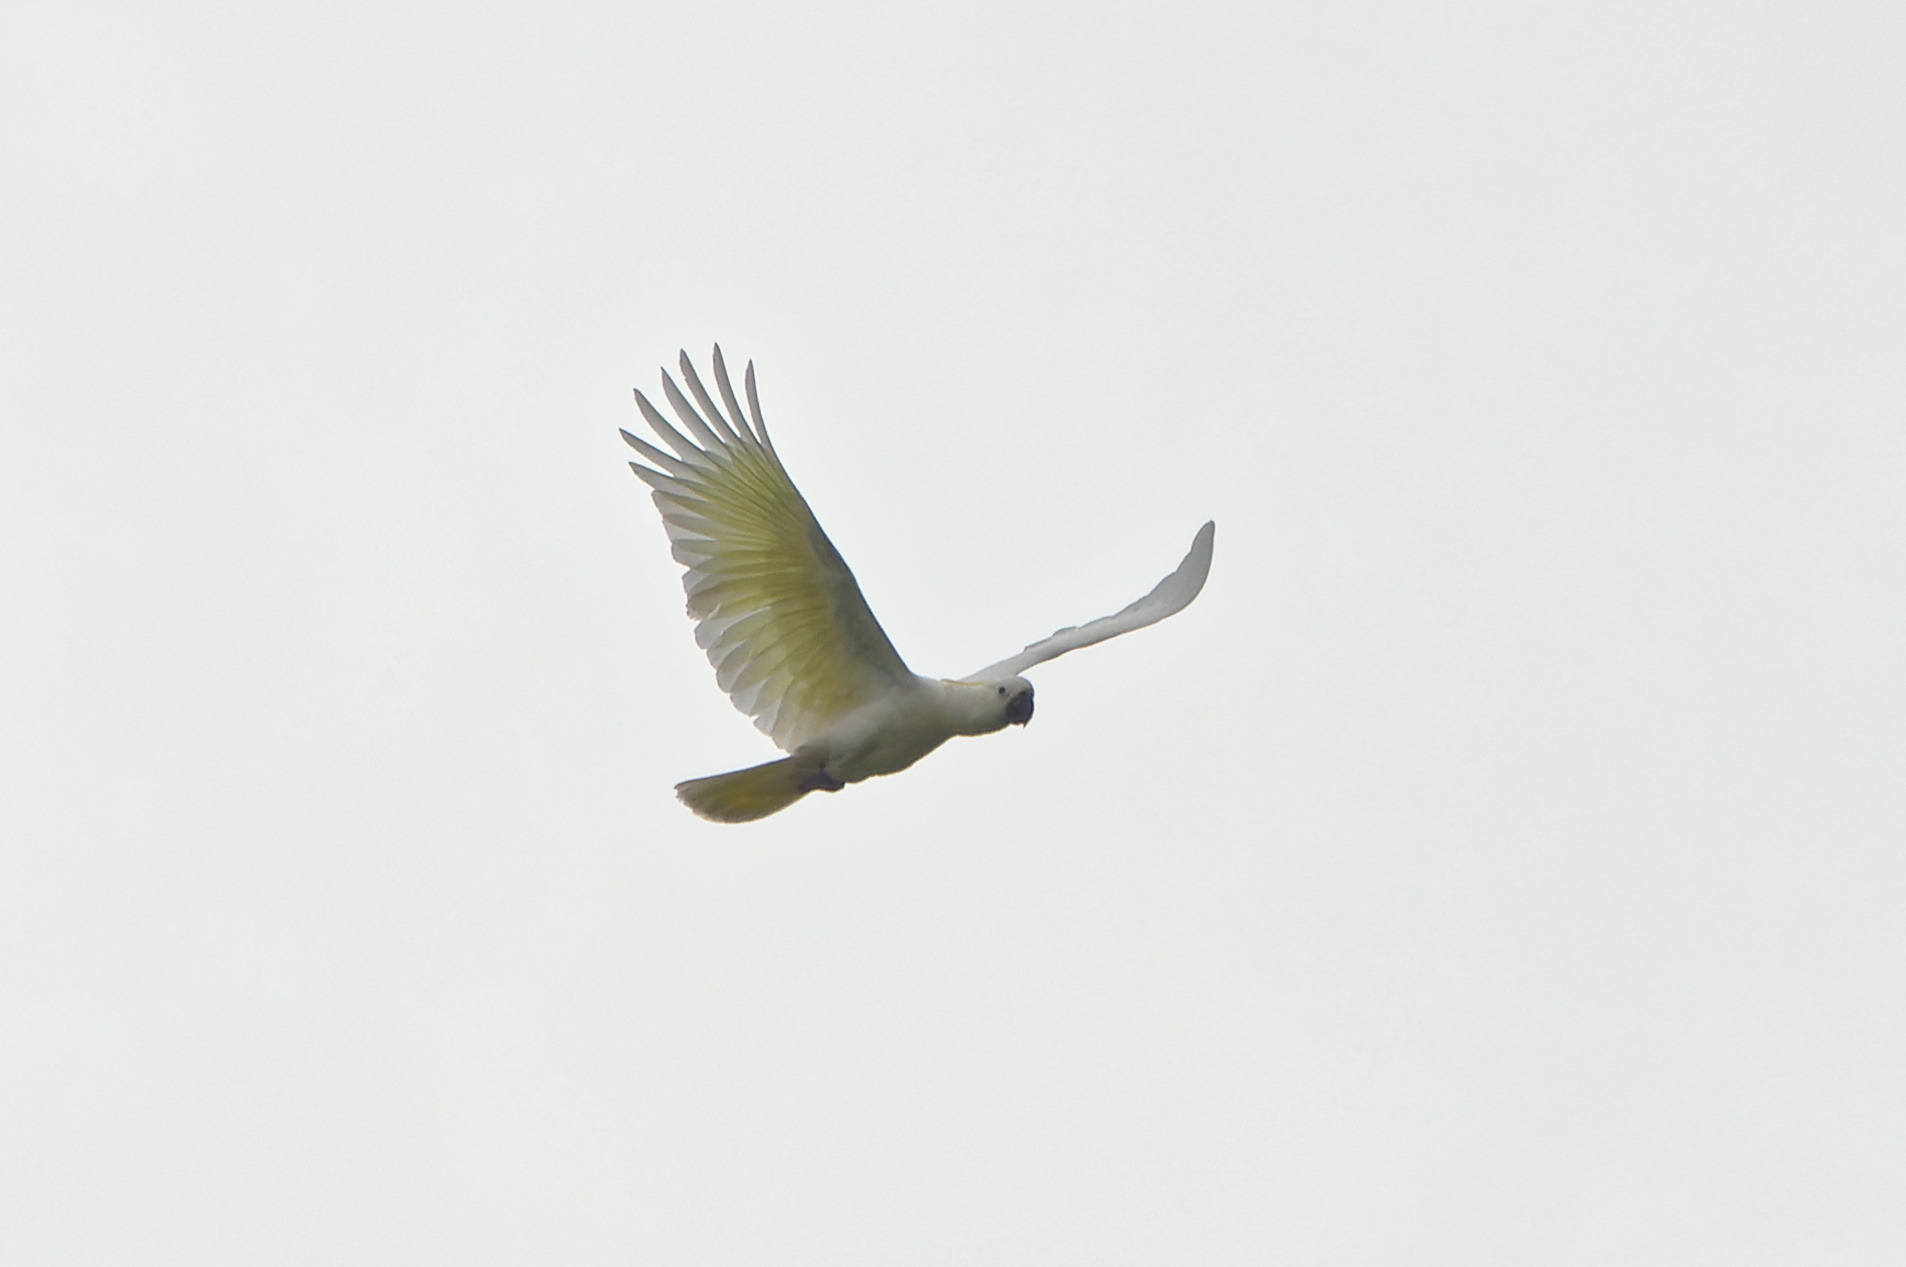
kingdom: Animalia
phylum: Chordata
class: Aves
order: Psittaciformes
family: Psittacidae
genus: Cacatua
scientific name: Cacatua galerita
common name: Sulphur-crested cockatoo
